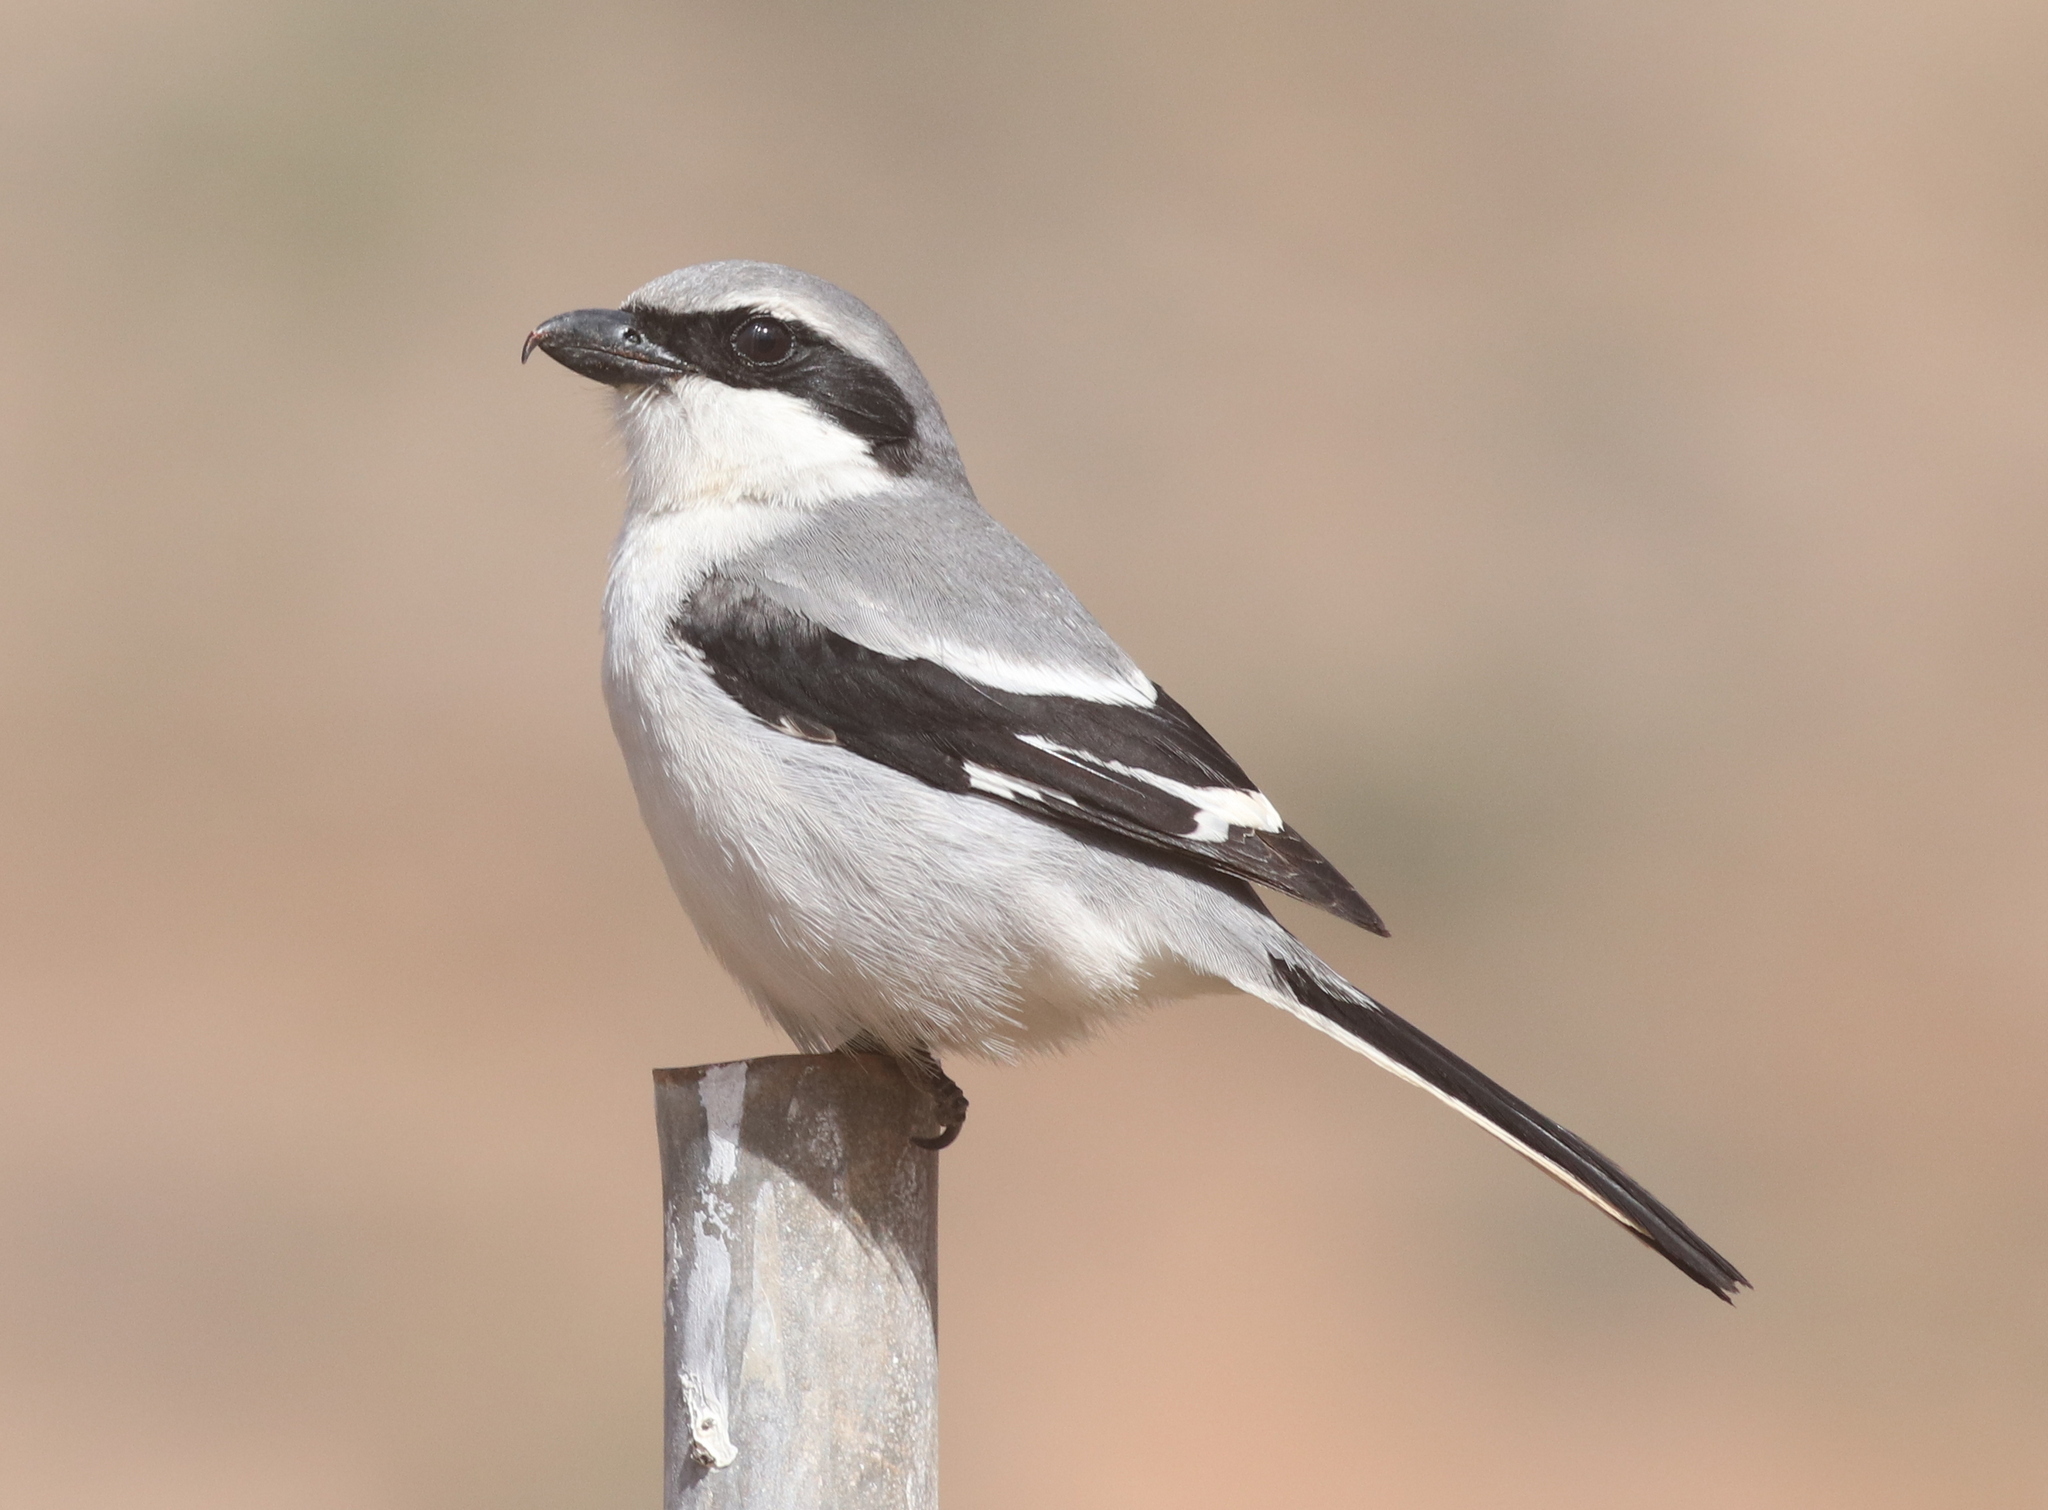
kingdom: Animalia
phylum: Chordata
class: Aves
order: Passeriformes
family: Laniidae
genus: Lanius
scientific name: Lanius excubitor
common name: Great grey shrike
